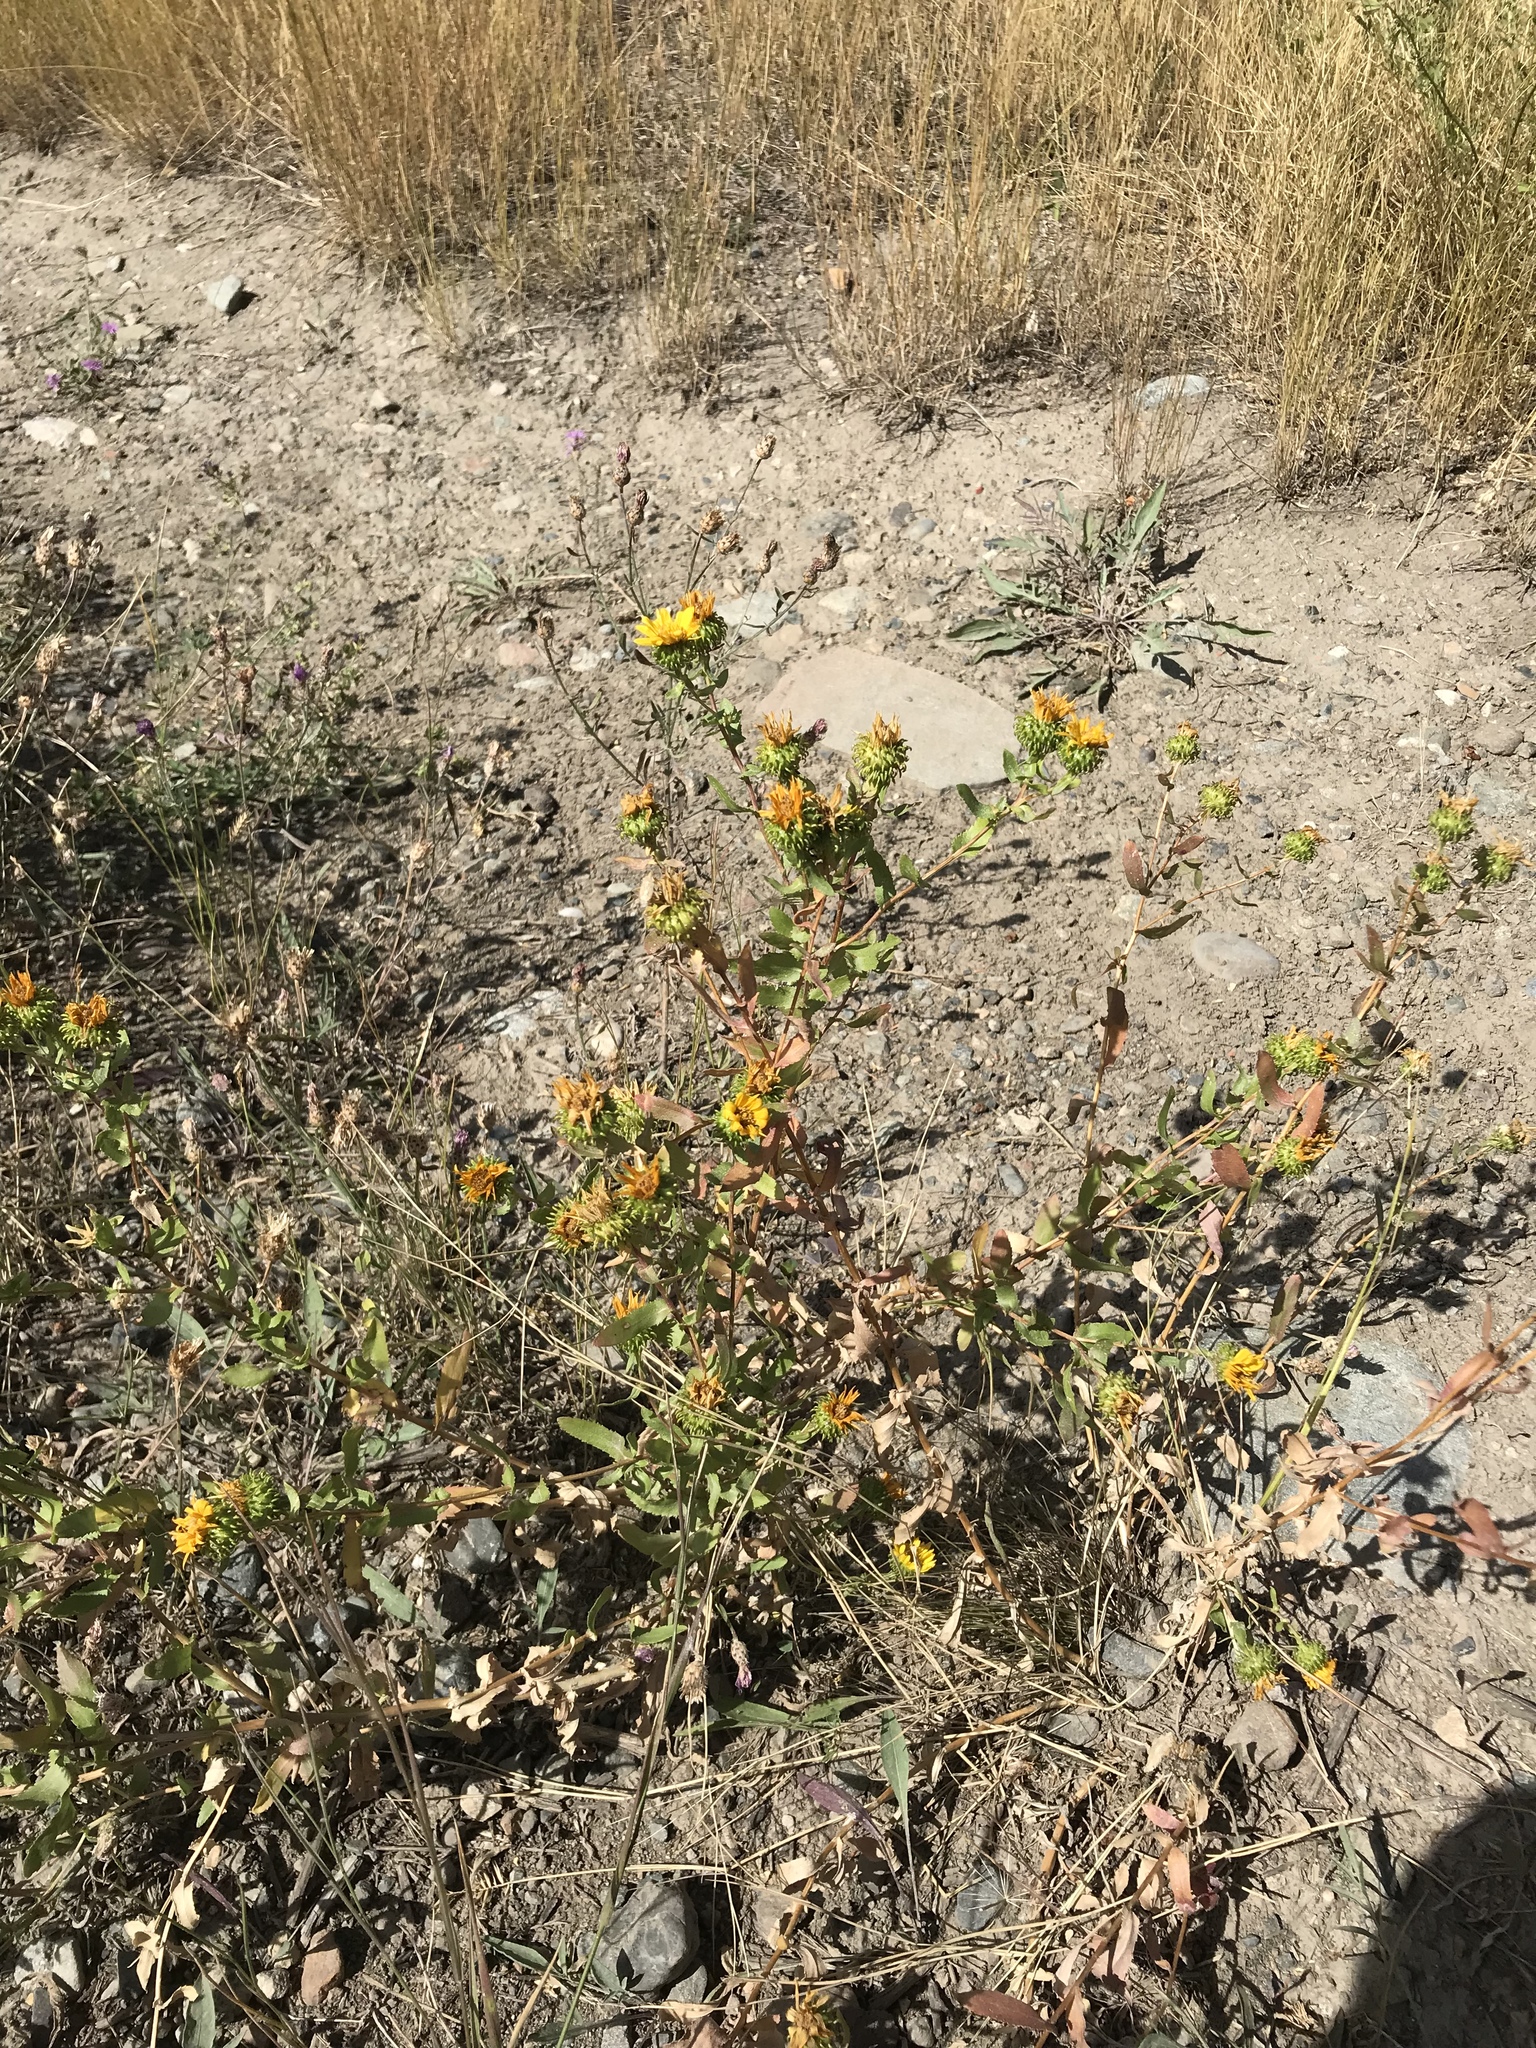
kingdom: Plantae
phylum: Tracheophyta
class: Magnoliopsida
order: Asterales
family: Asteraceae
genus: Grindelia
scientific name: Grindelia squarrosa
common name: Curly-cup gumweed
